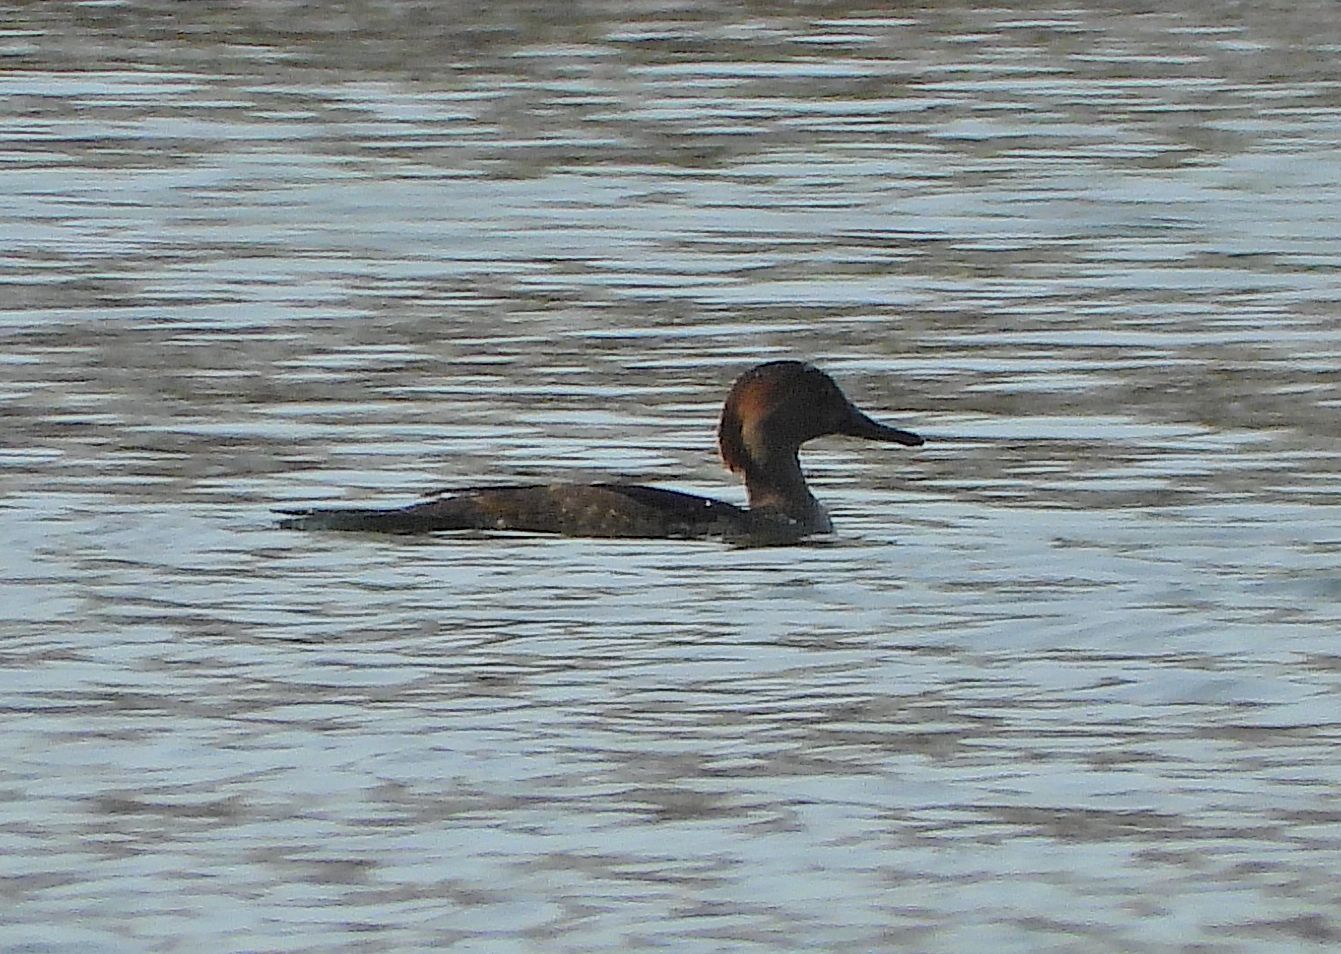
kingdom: Animalia
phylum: Chordata
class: Aves
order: Anseriformes
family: Anatidae
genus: Lophodytes
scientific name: Lophodytes cucullatus
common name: Hooded merganser
